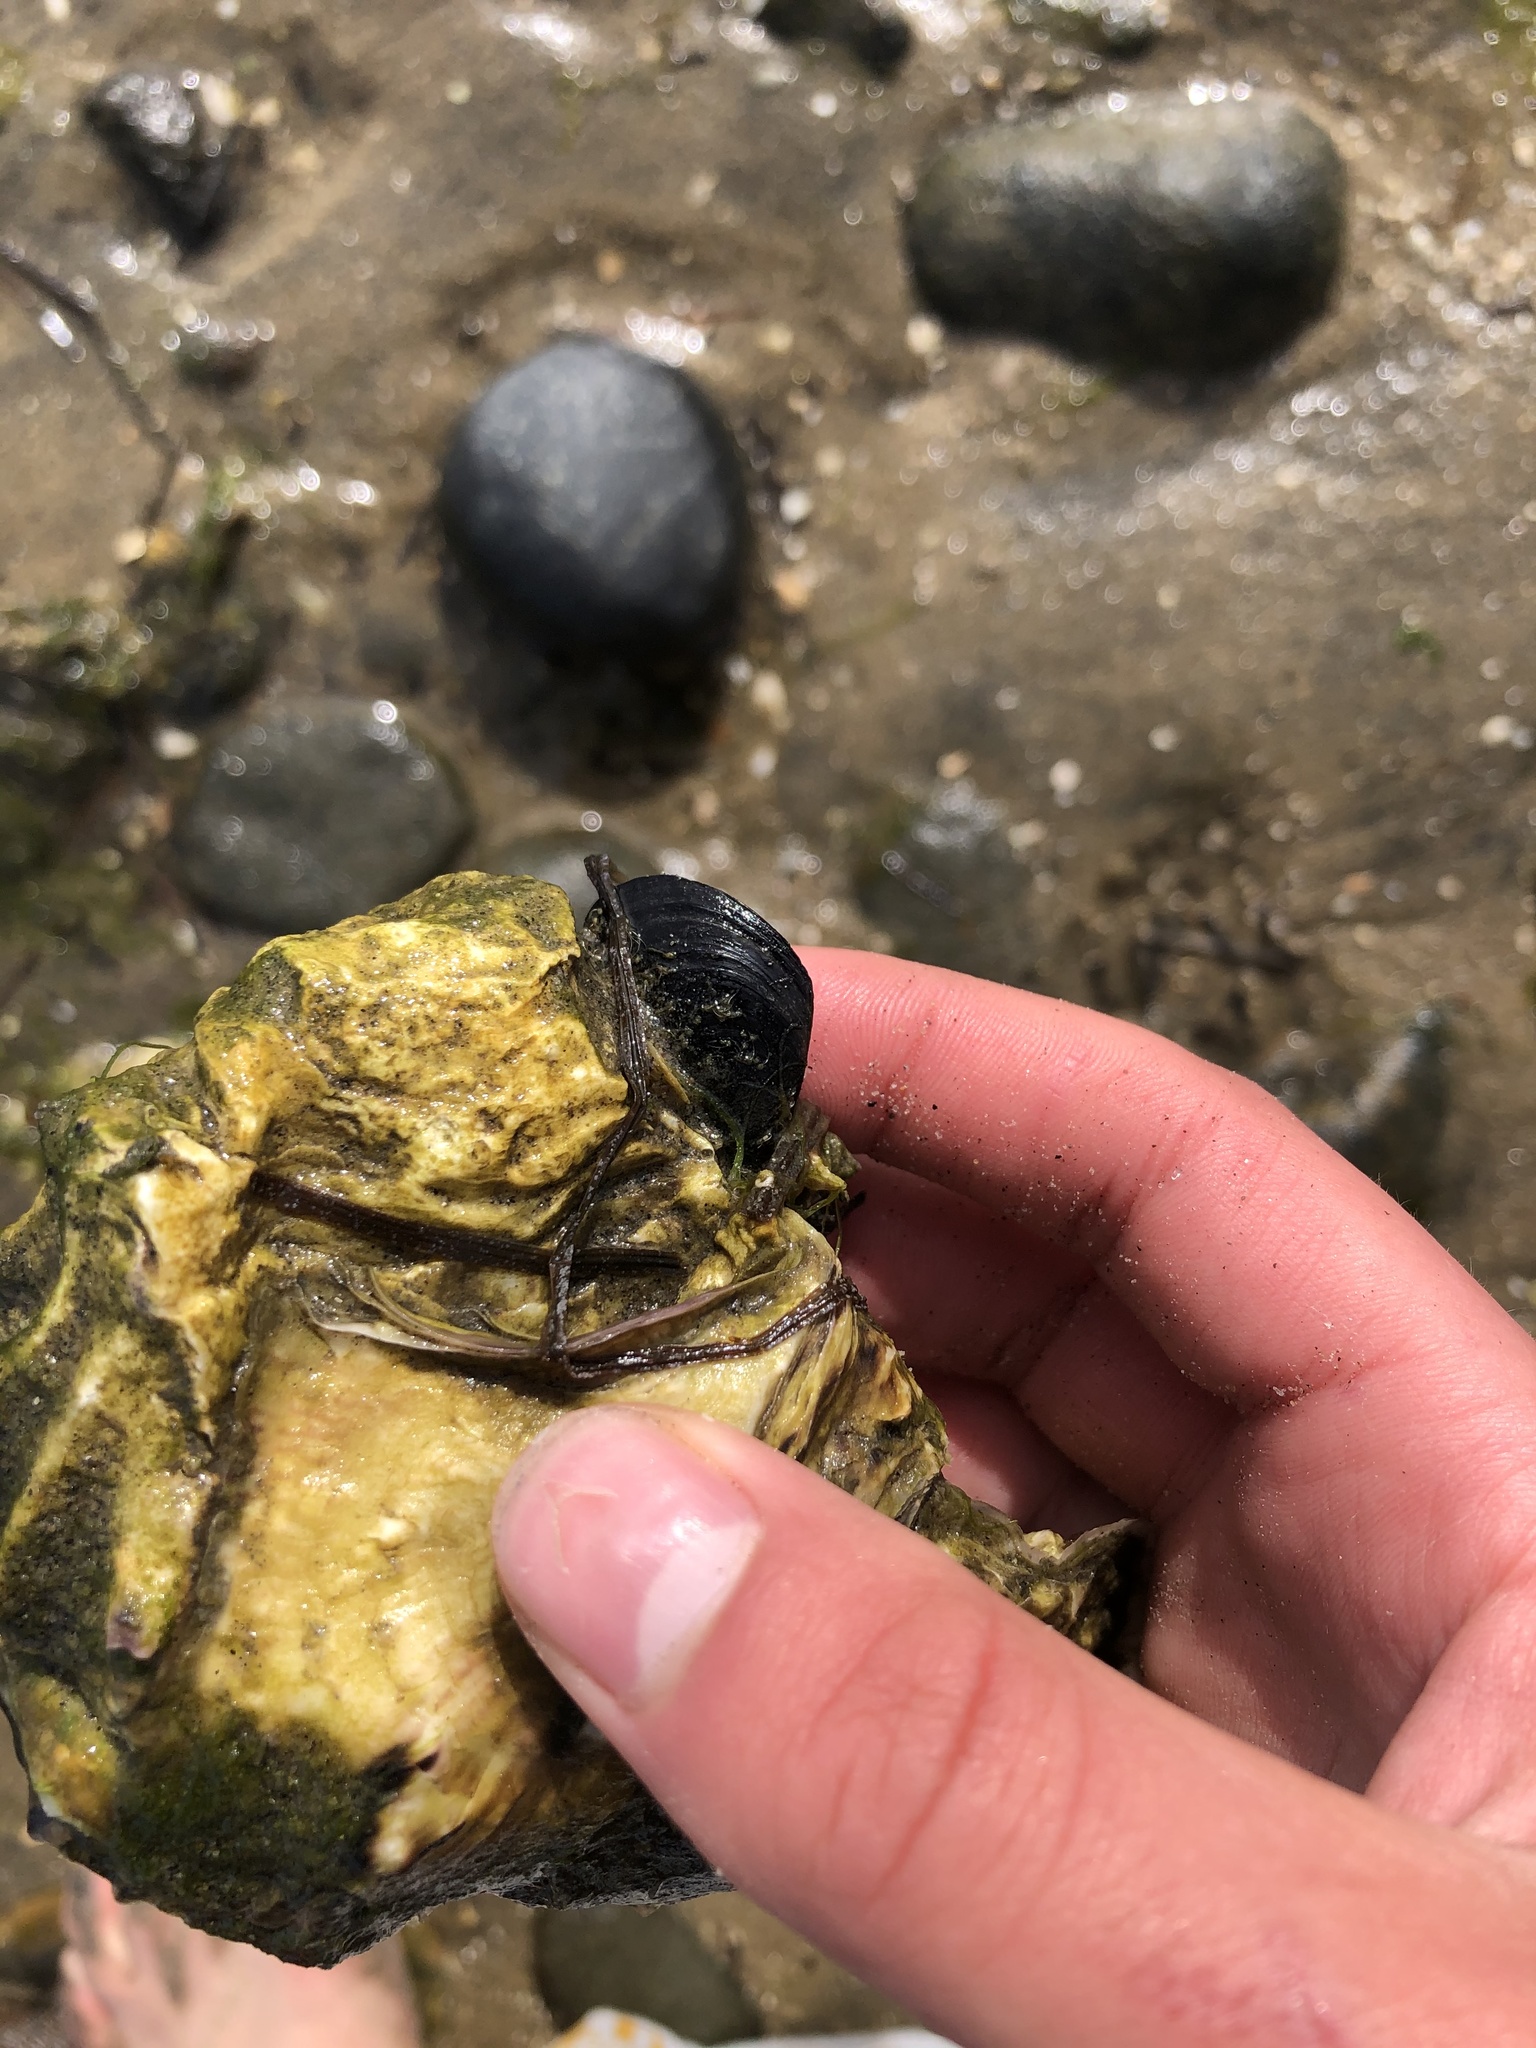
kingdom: Animalia
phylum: Mollusca
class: Bivalvia
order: Mytilida
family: Mytilidae
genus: Mytilus
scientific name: Mytilus galloprovincialis
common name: Mediterranean mussel
